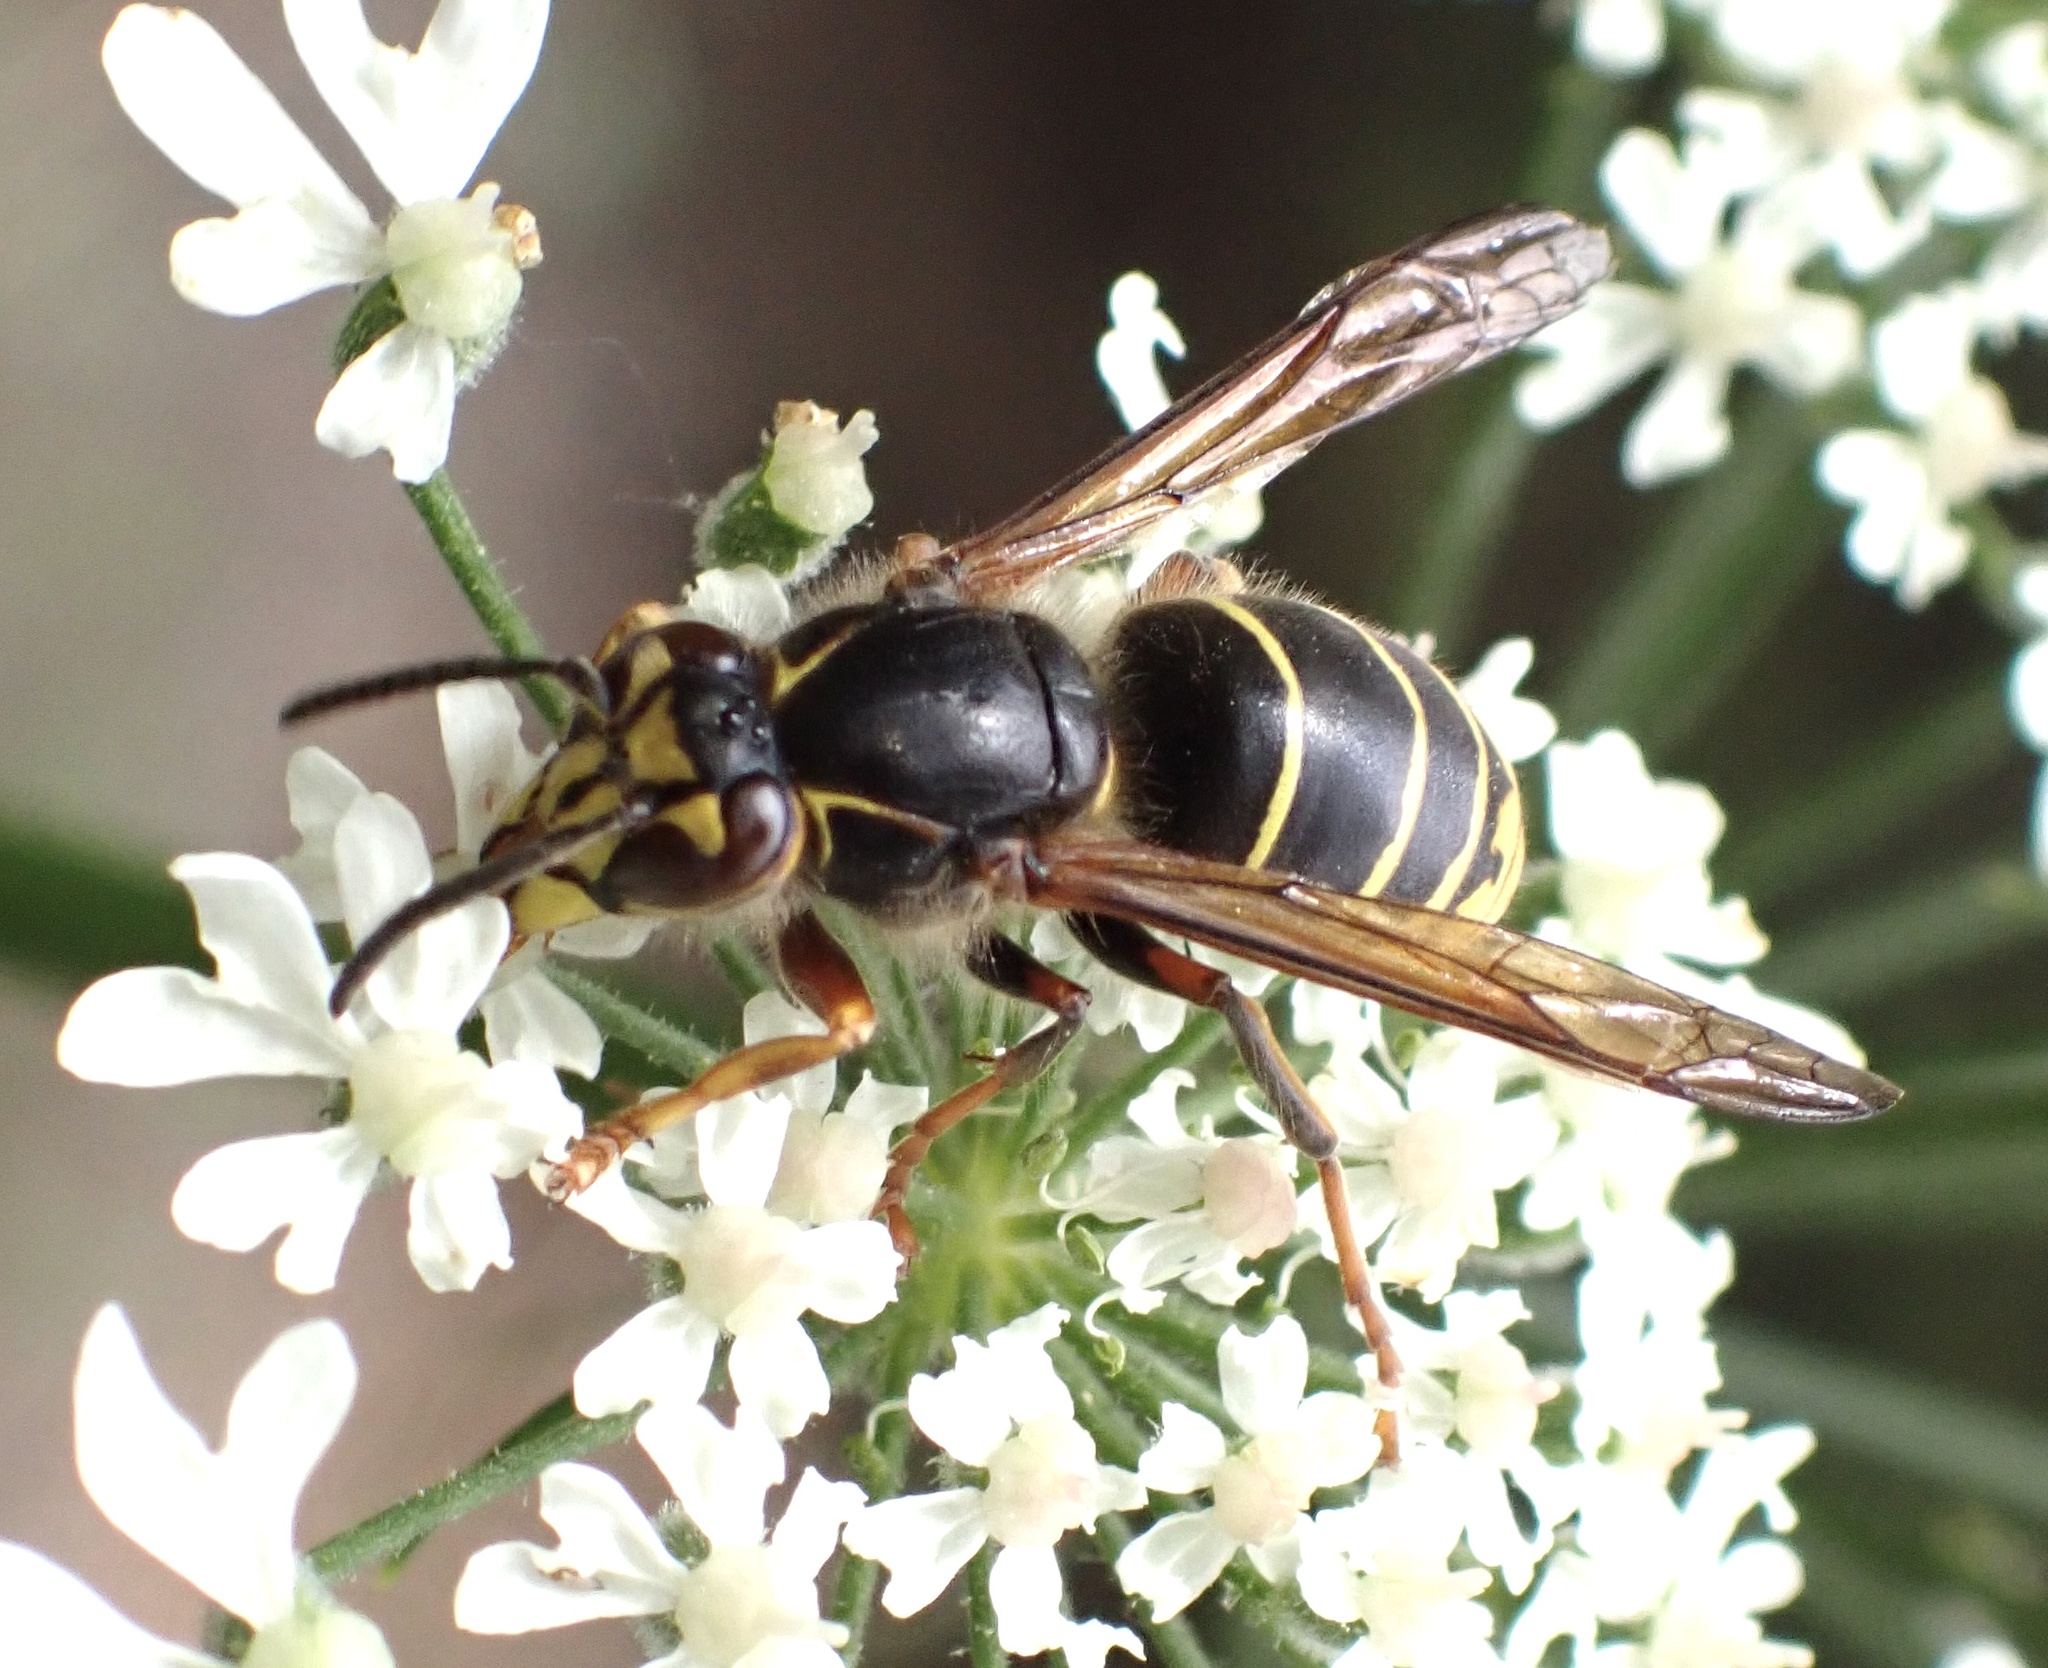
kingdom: Animalia
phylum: Arthropoda
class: Insecta
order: Hymenoptera
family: Vespidae
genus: Dolichovespula
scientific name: Dolichovespula media
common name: Median wasp
